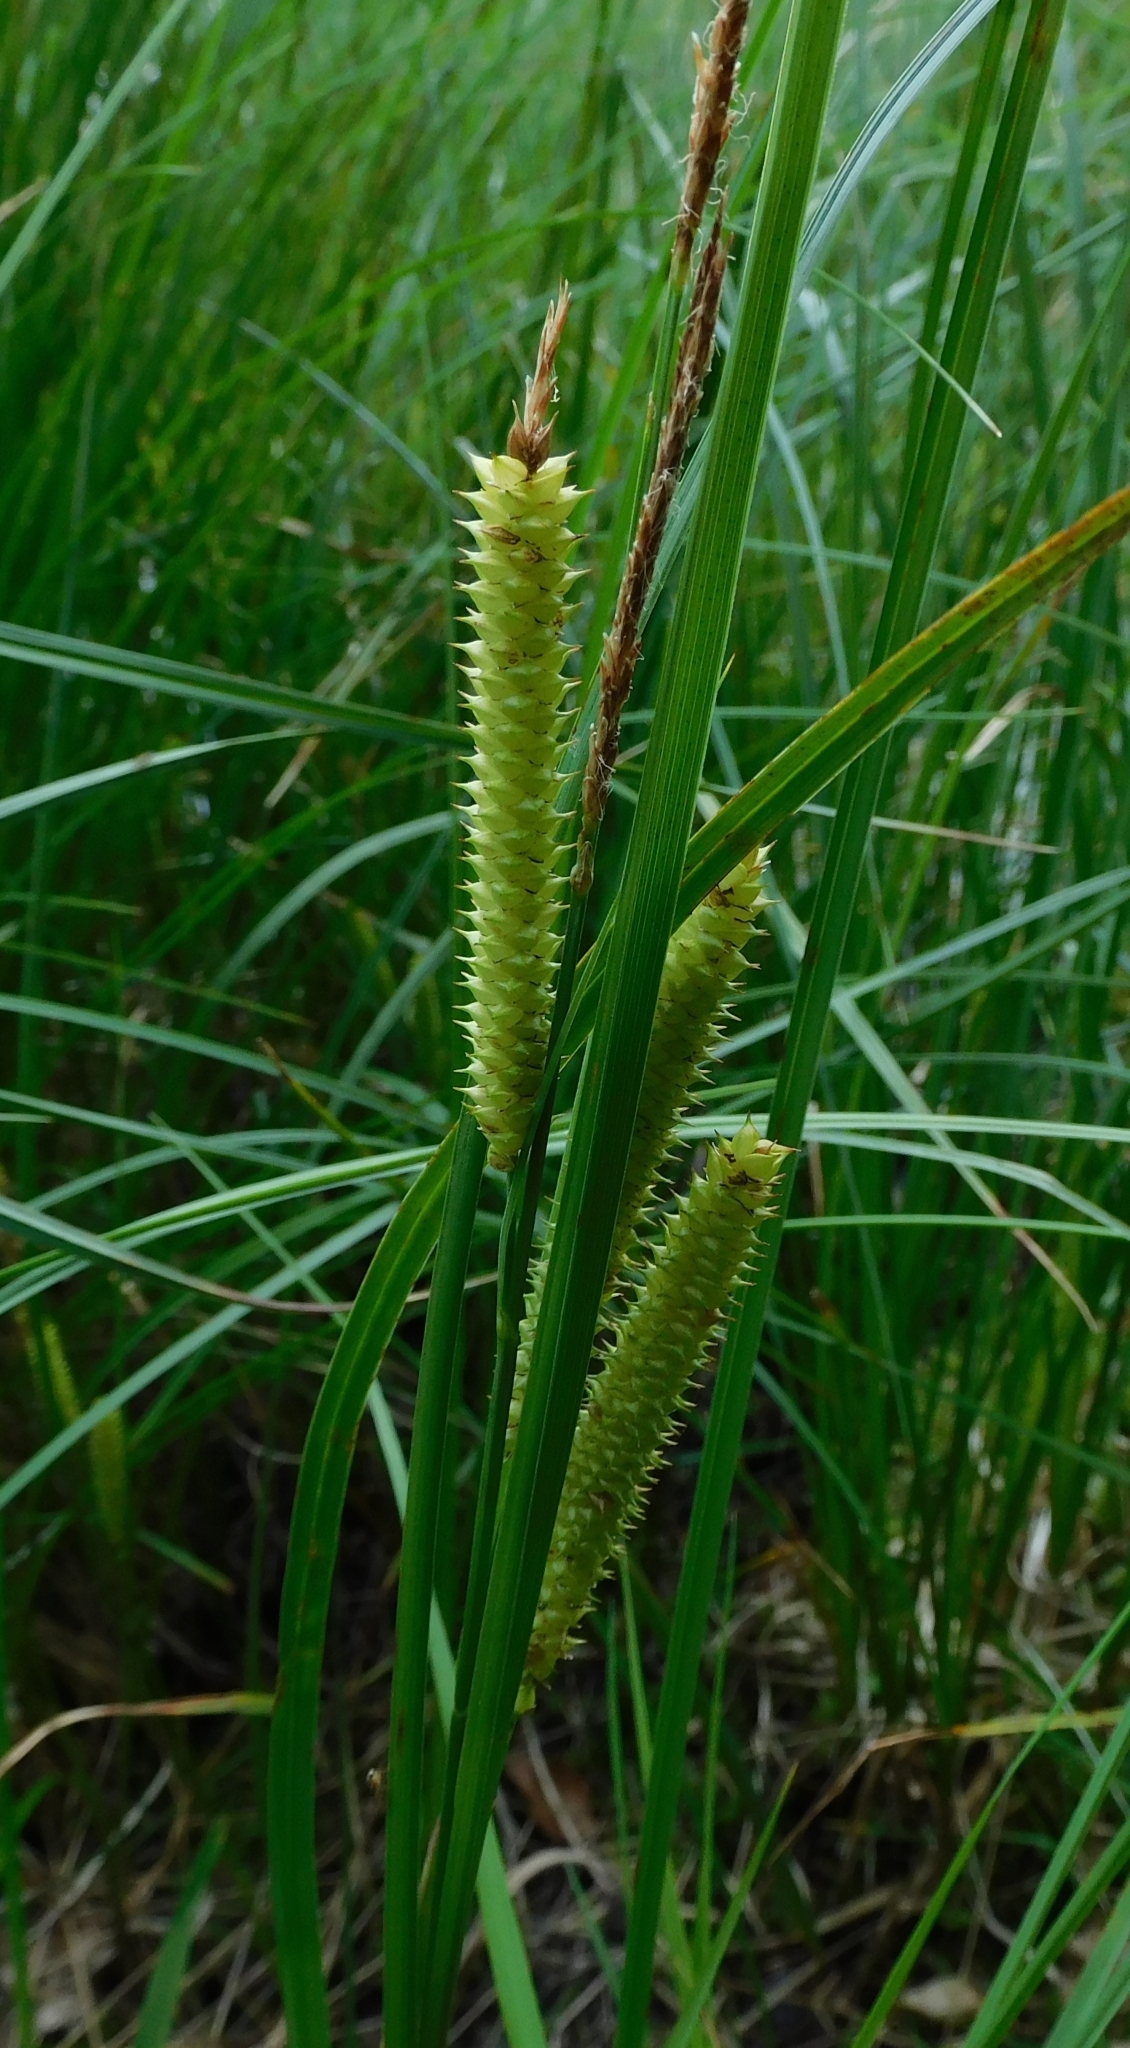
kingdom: Plantae
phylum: Tracheophyta
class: Liliopsida
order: Poales
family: Cyperaceae
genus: Carex
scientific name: Carex rostrata
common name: Bottle sedge
